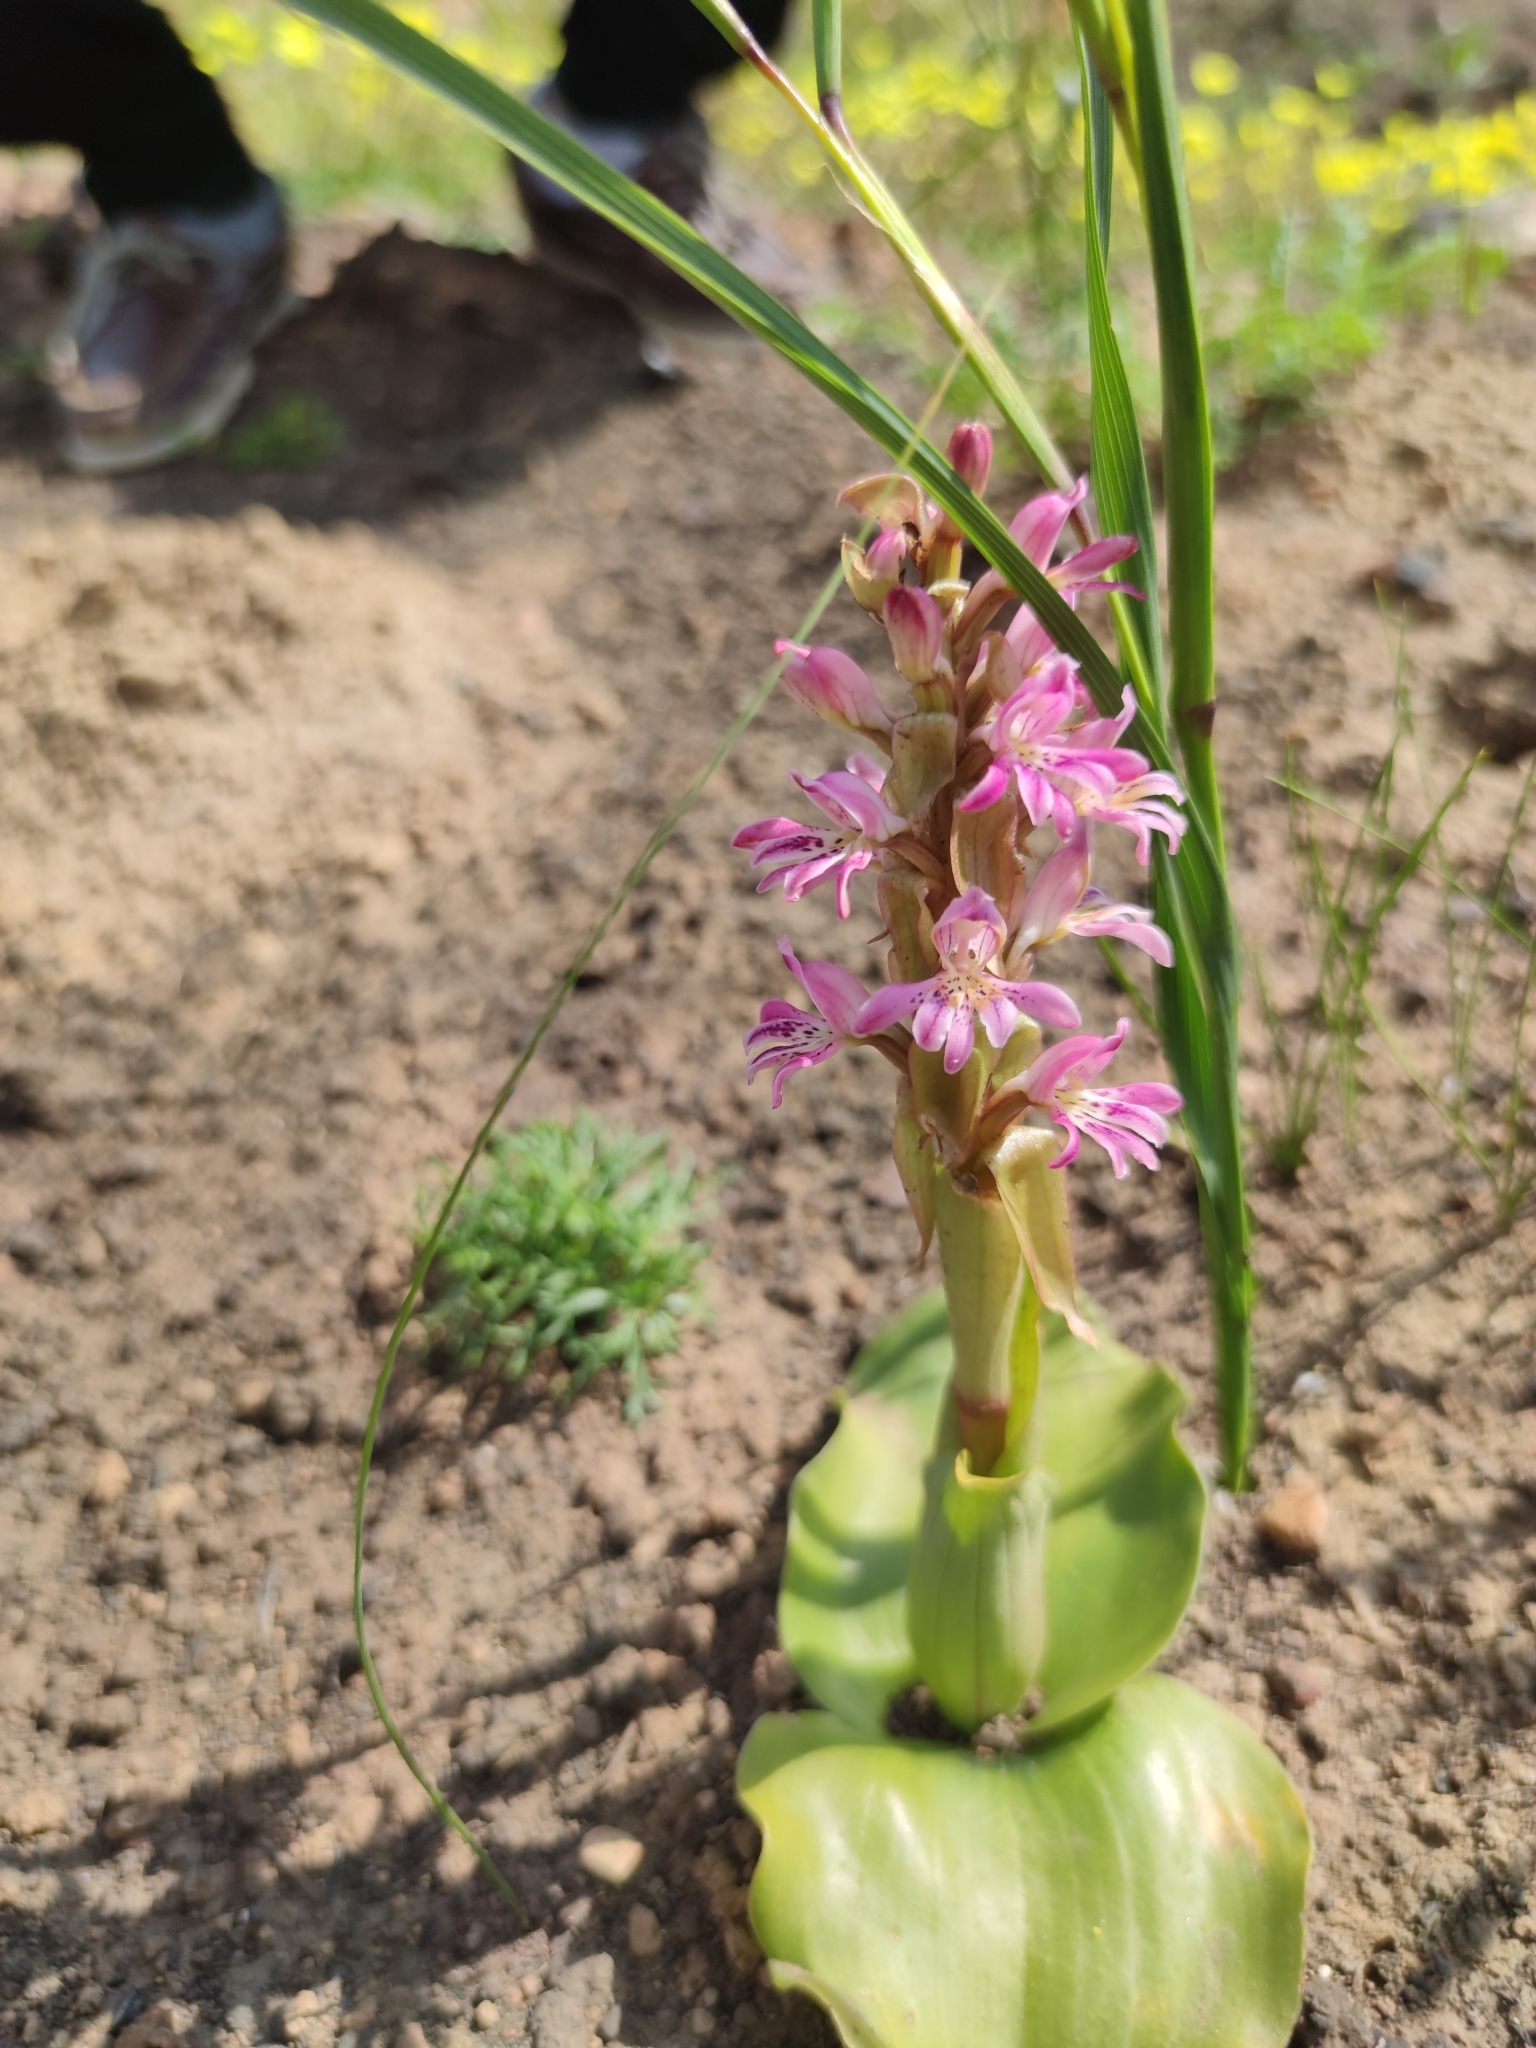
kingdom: Plantae
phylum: Tracheophyta
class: Liliopsida
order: Asparagales
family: Orchidaceae
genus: Satyrium
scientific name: Satyrium erectum
